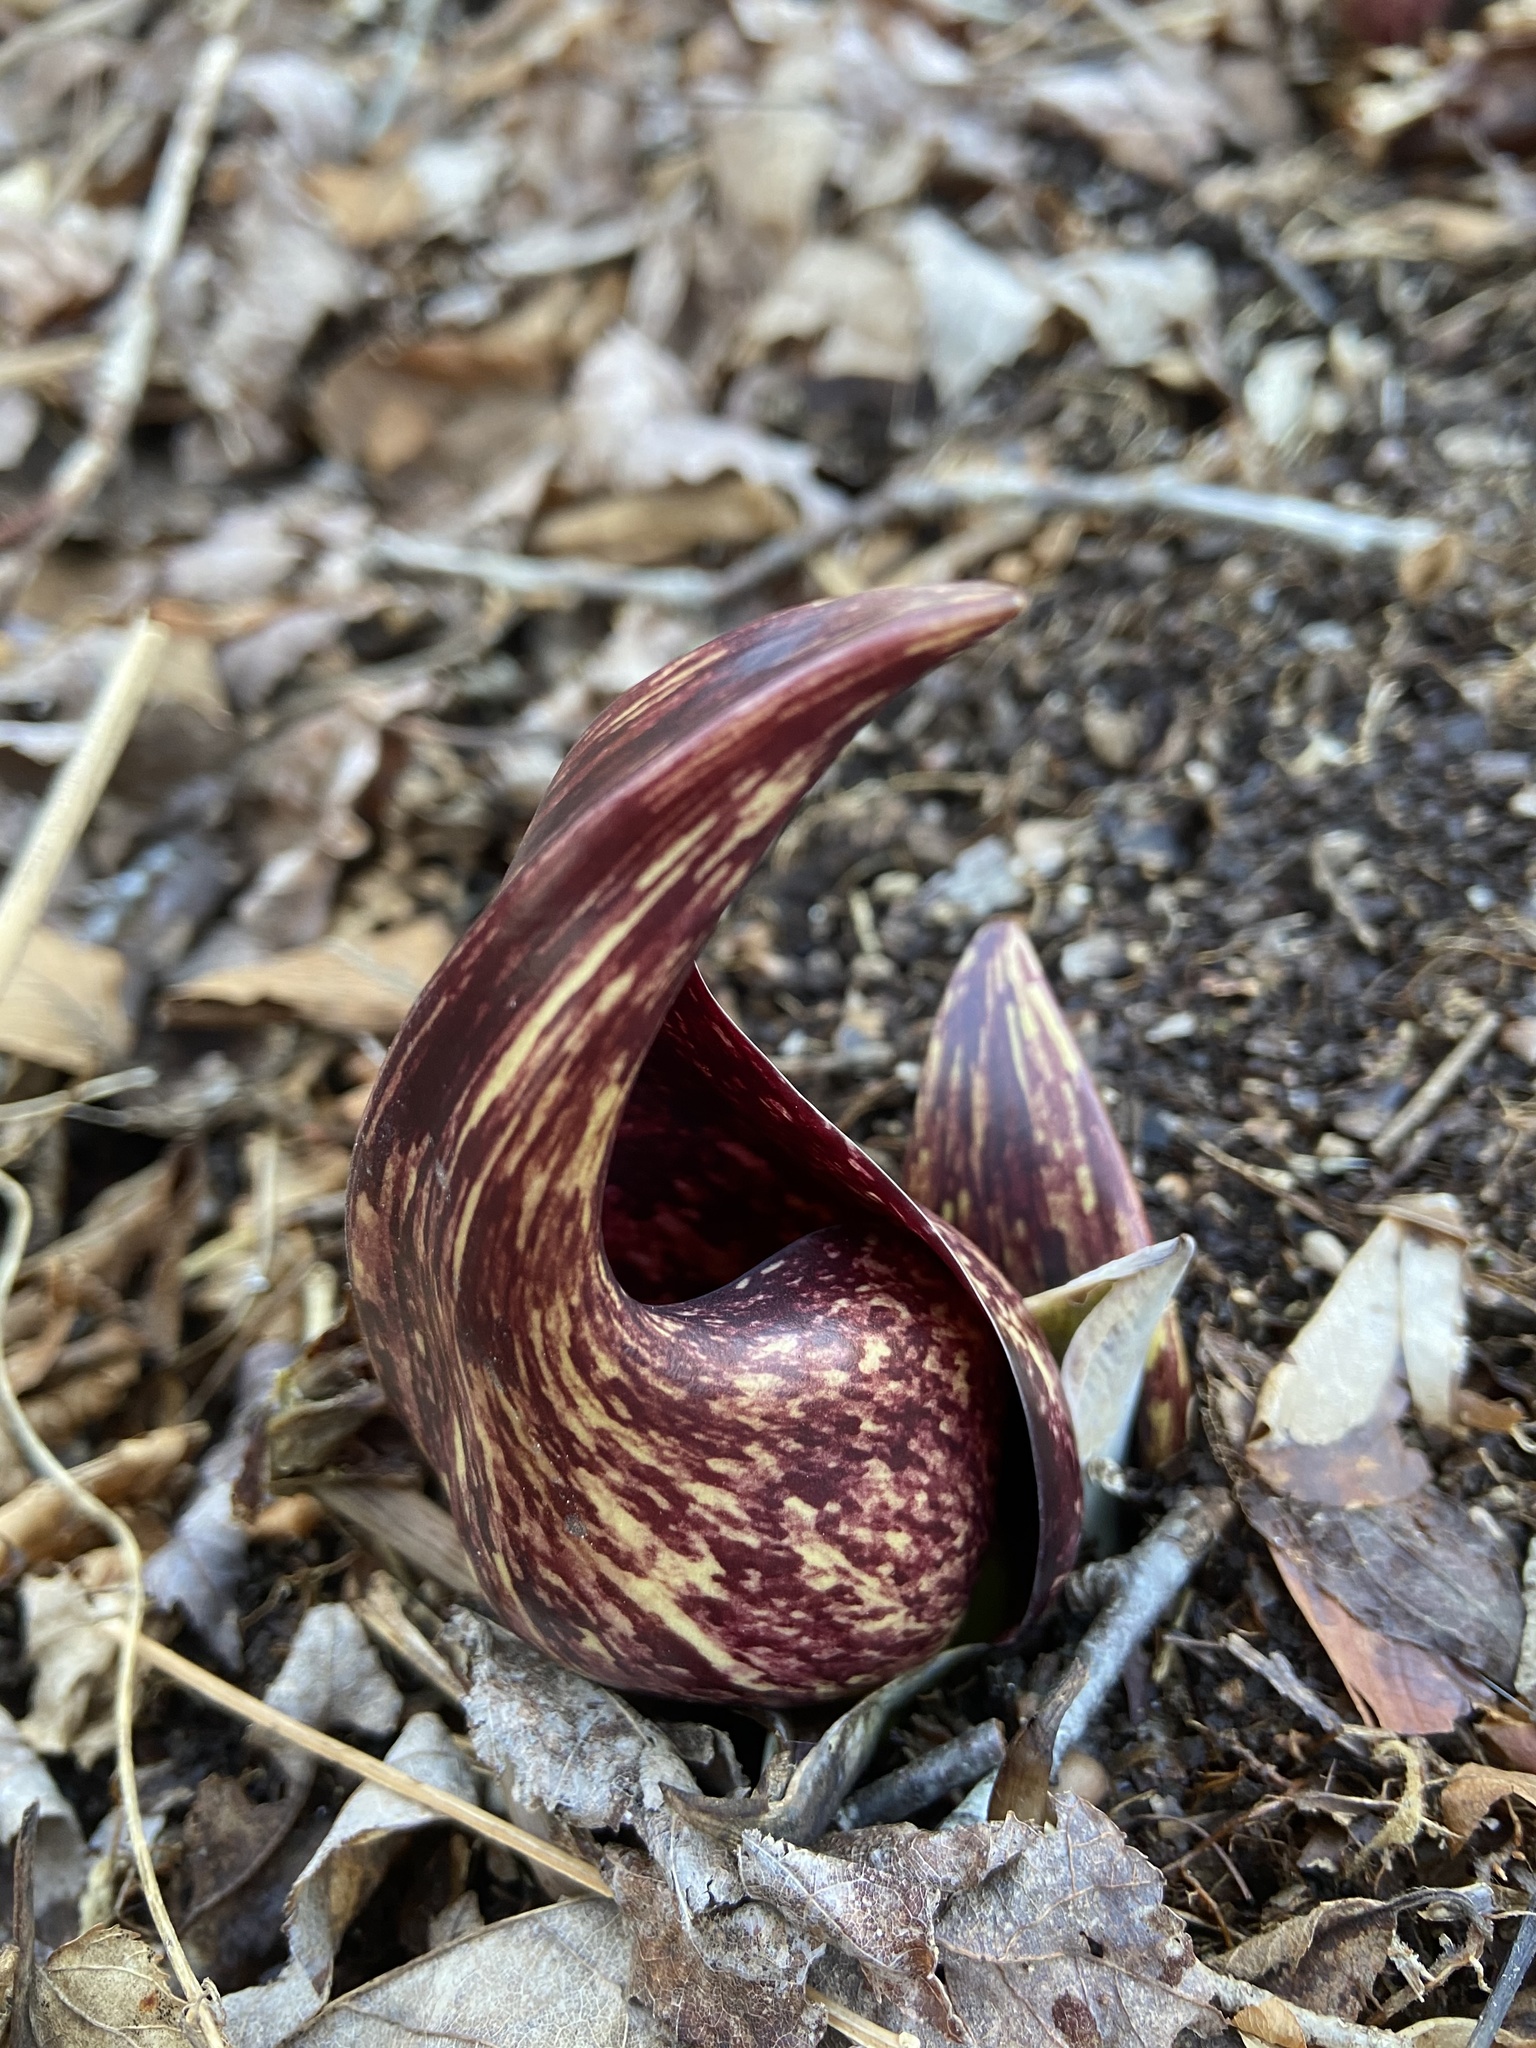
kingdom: Plantae
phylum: Tracheophyta
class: Liliopsida
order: Alismatales
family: Araceae
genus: Symplocarpus
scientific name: Symplocarpus foetidus
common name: Eastern skunk cabbage
